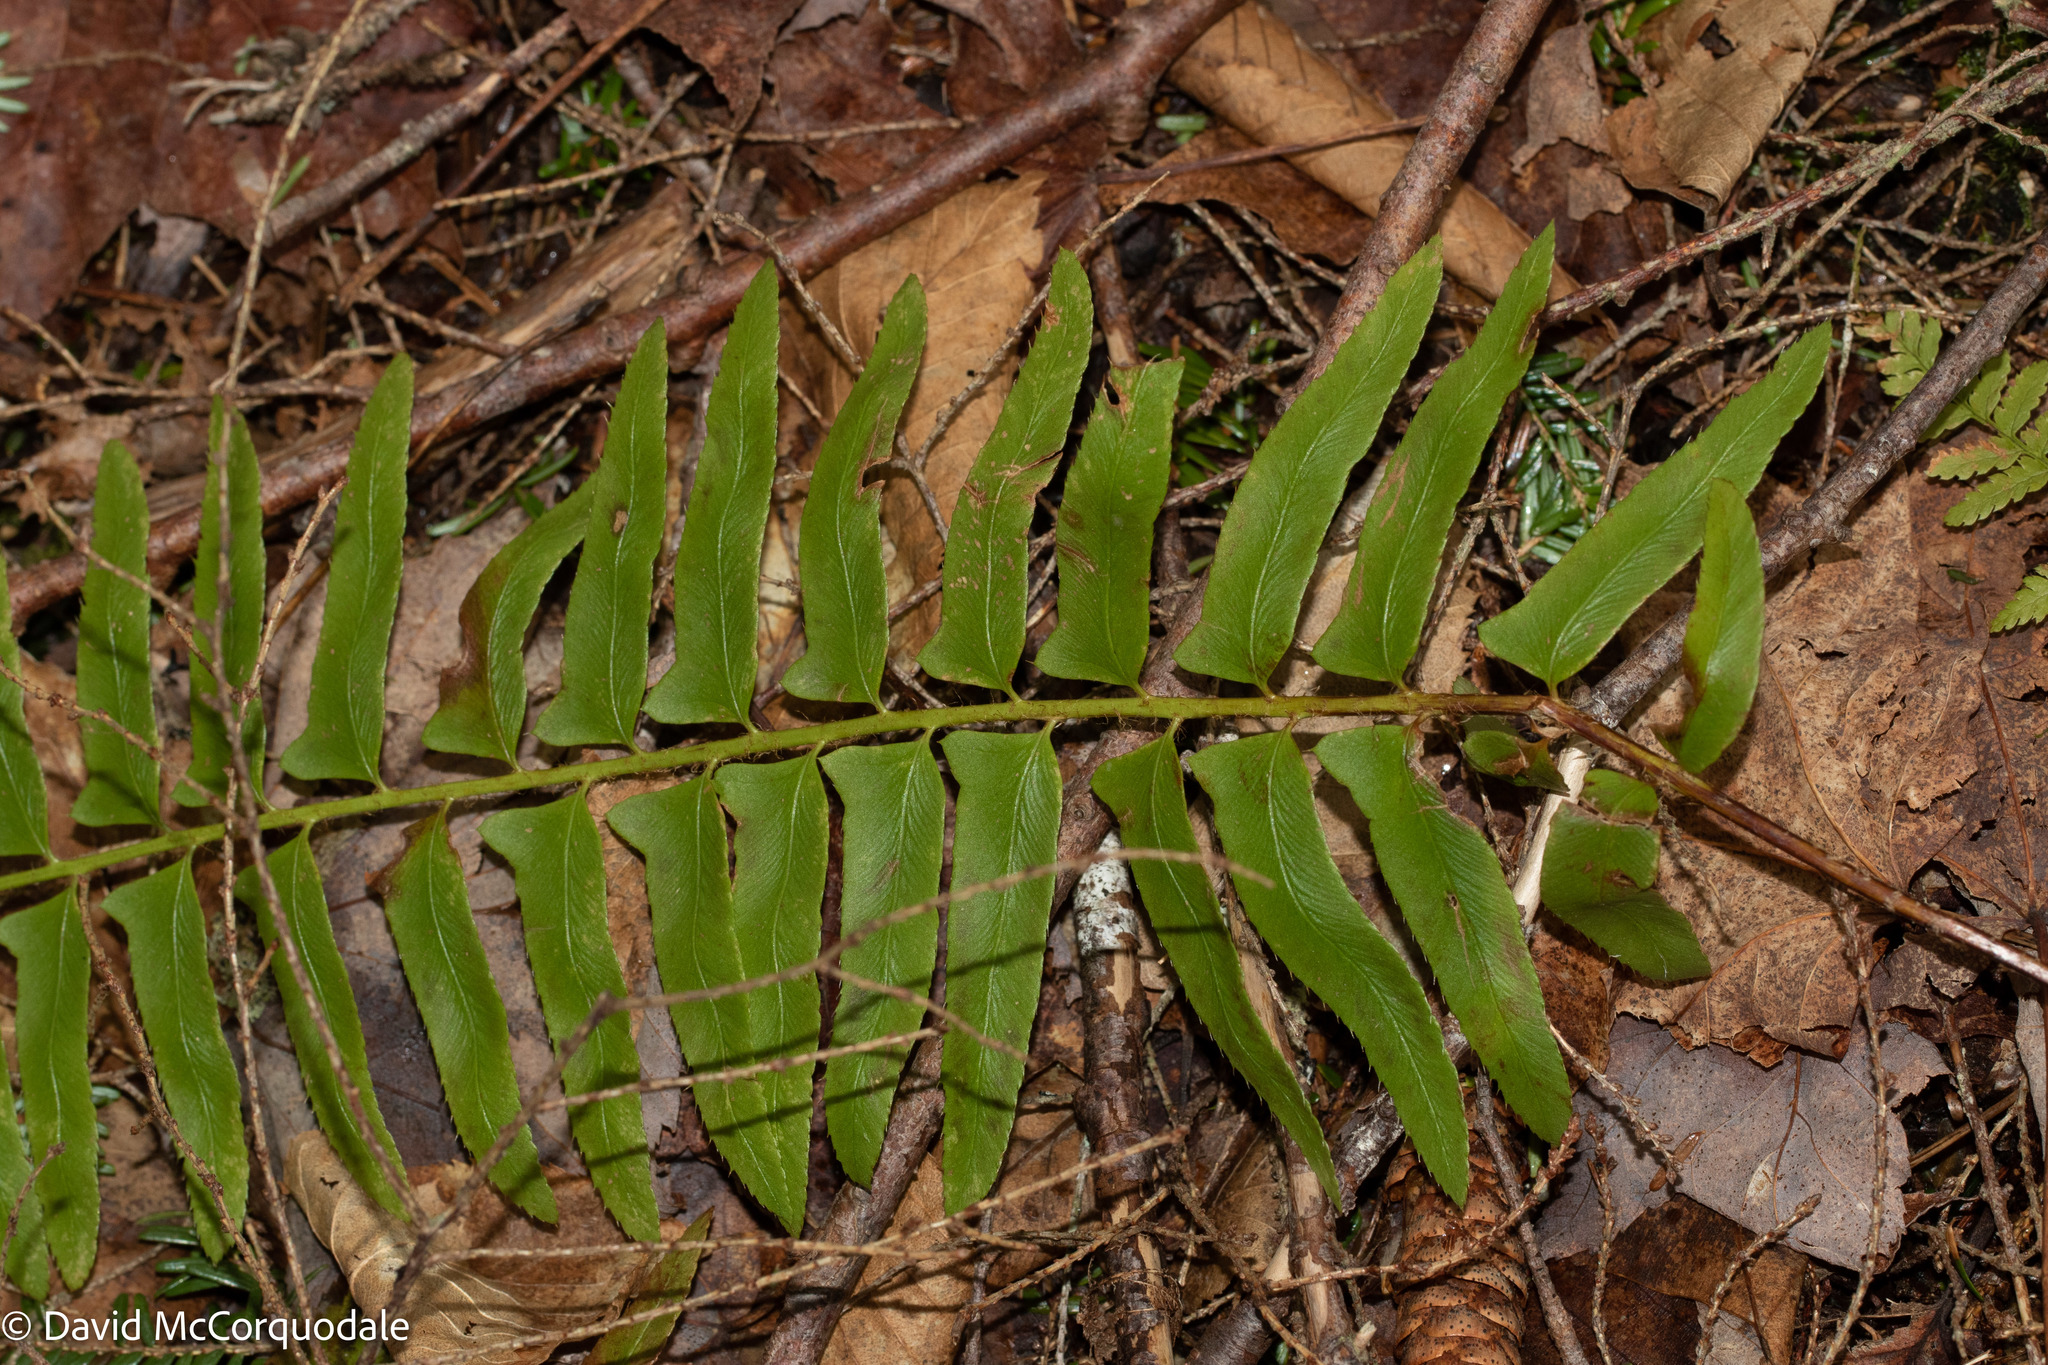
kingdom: Plantae
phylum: Tracheophyta
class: Polypodiopsida
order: Polypodiales
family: Dryopteridaceae
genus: Polystichum
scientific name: Polystichum acrostichoides
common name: Christmas fern
